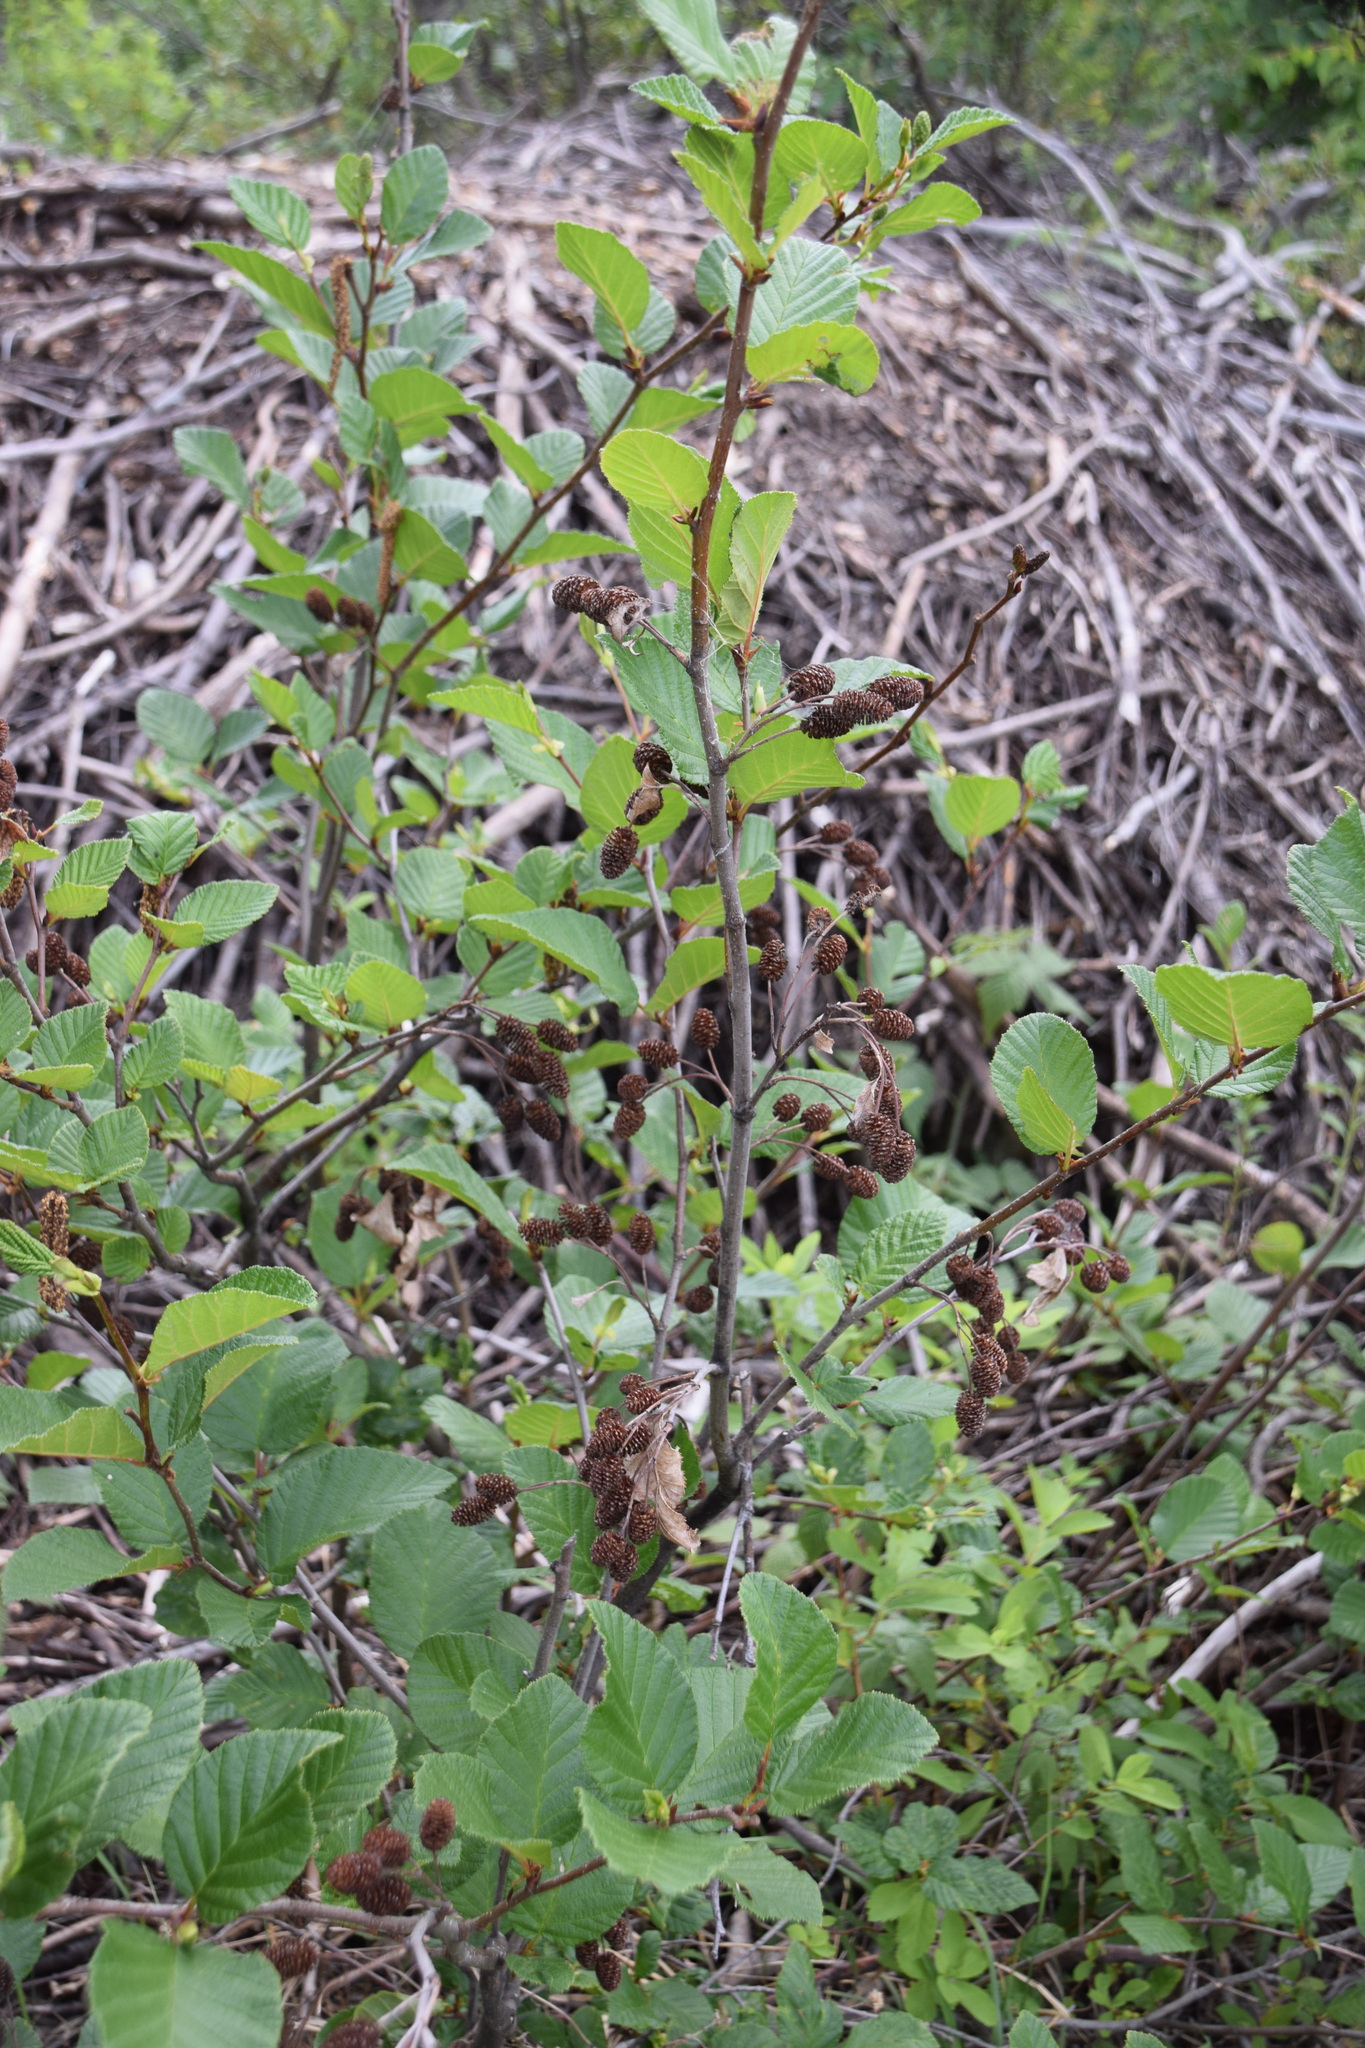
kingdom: Plantae
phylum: Tracheophyta
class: Magnoliopsida
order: Fagales
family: Betulaceae
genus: Alnus
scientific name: Alnus alnobetula
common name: Green alder
